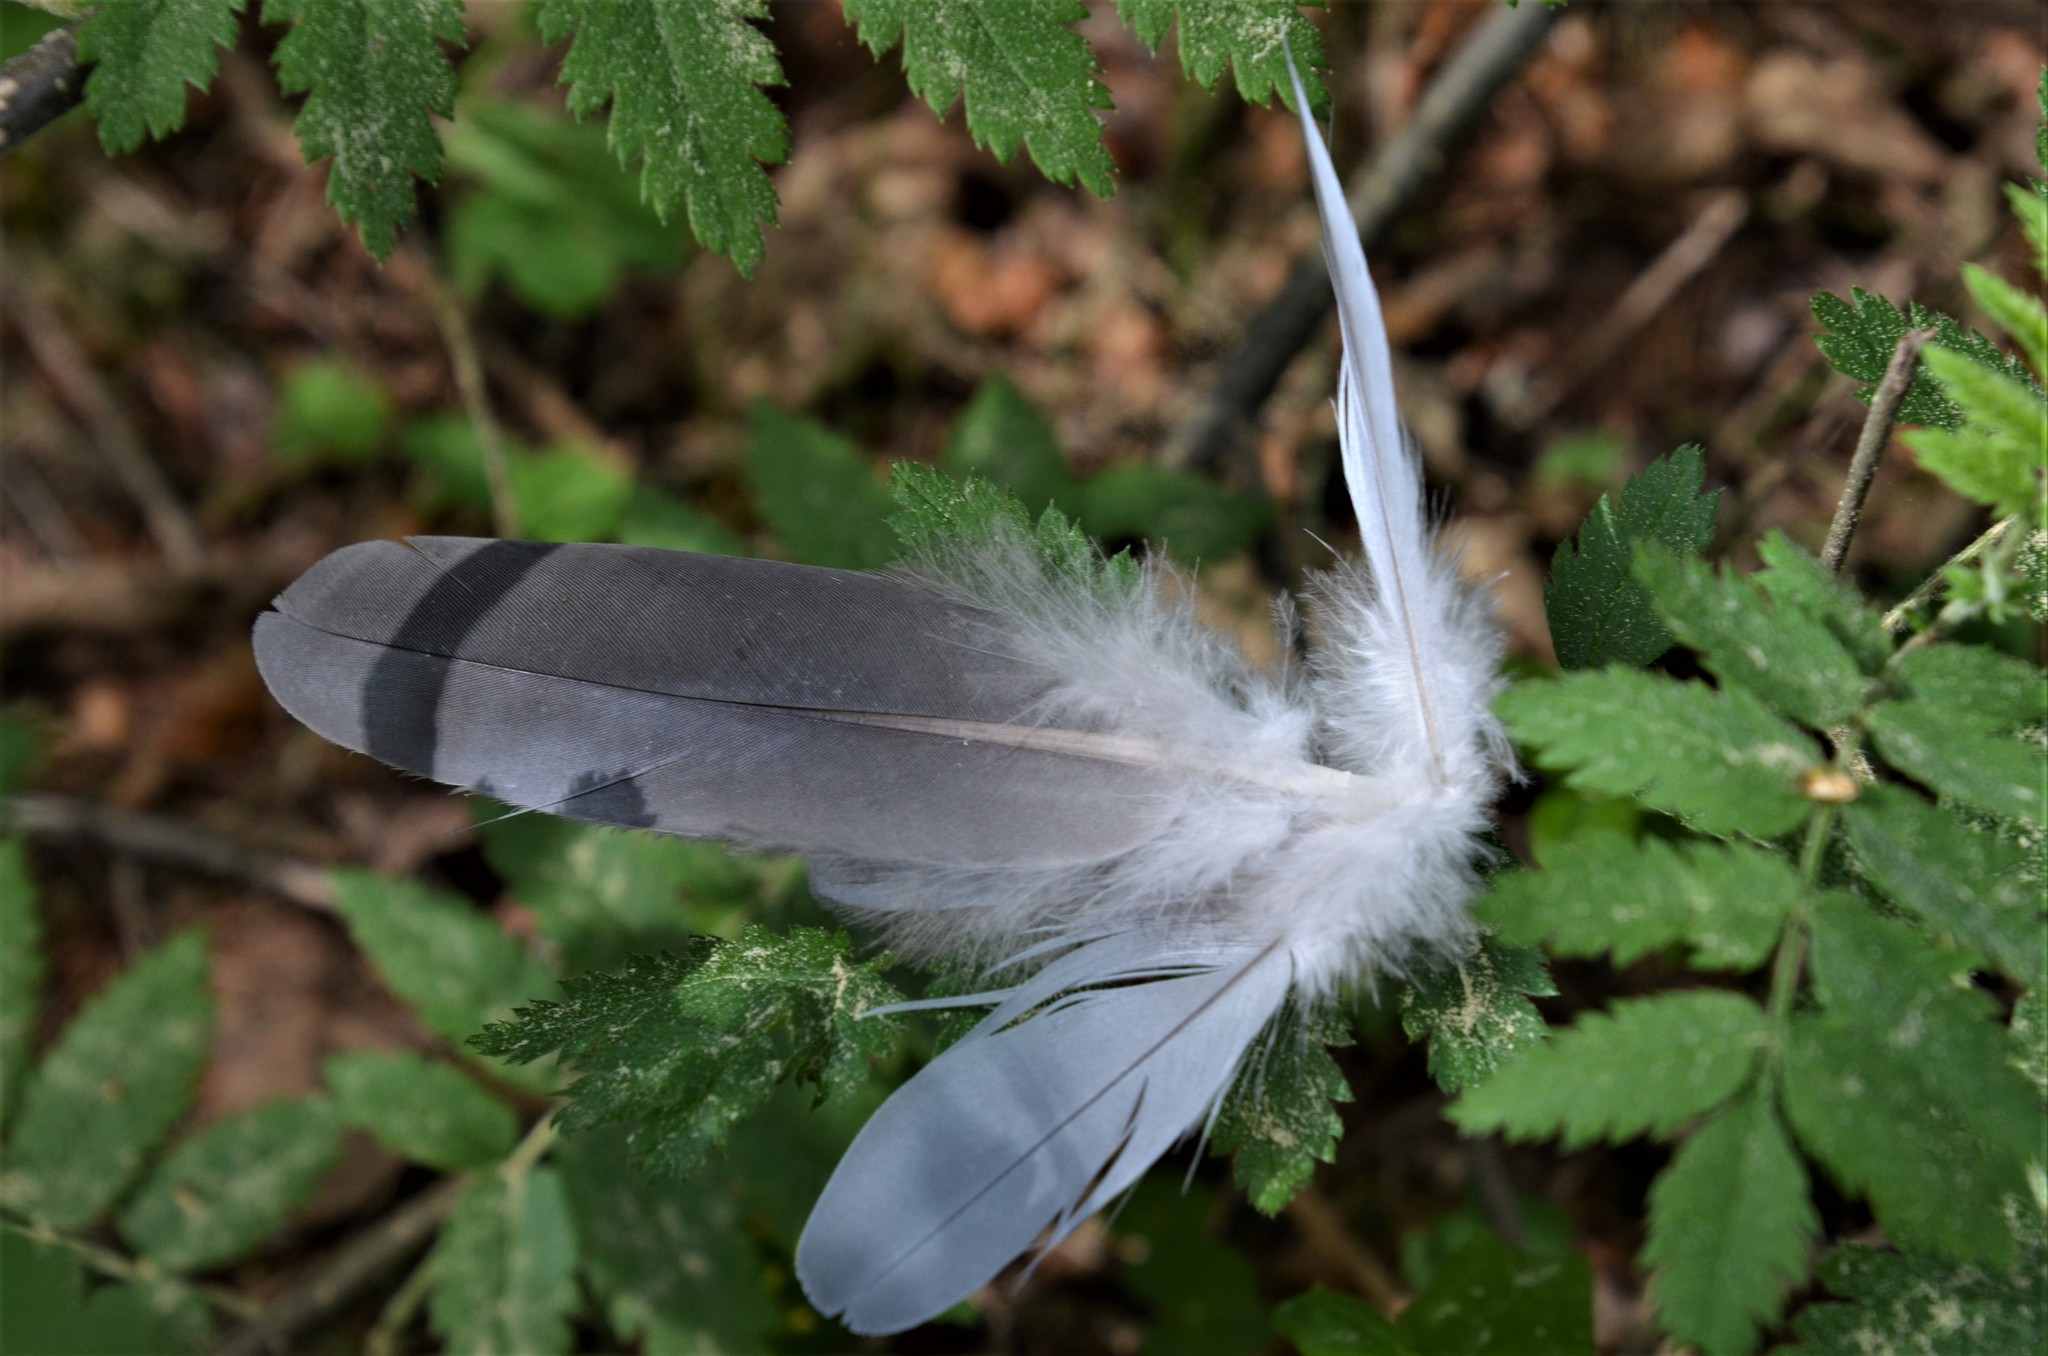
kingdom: Animalia
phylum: Chordata
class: Aves
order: Columbiformes
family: Columbidae
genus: Columba
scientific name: Columba palumbus
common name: Common wood pigeon
